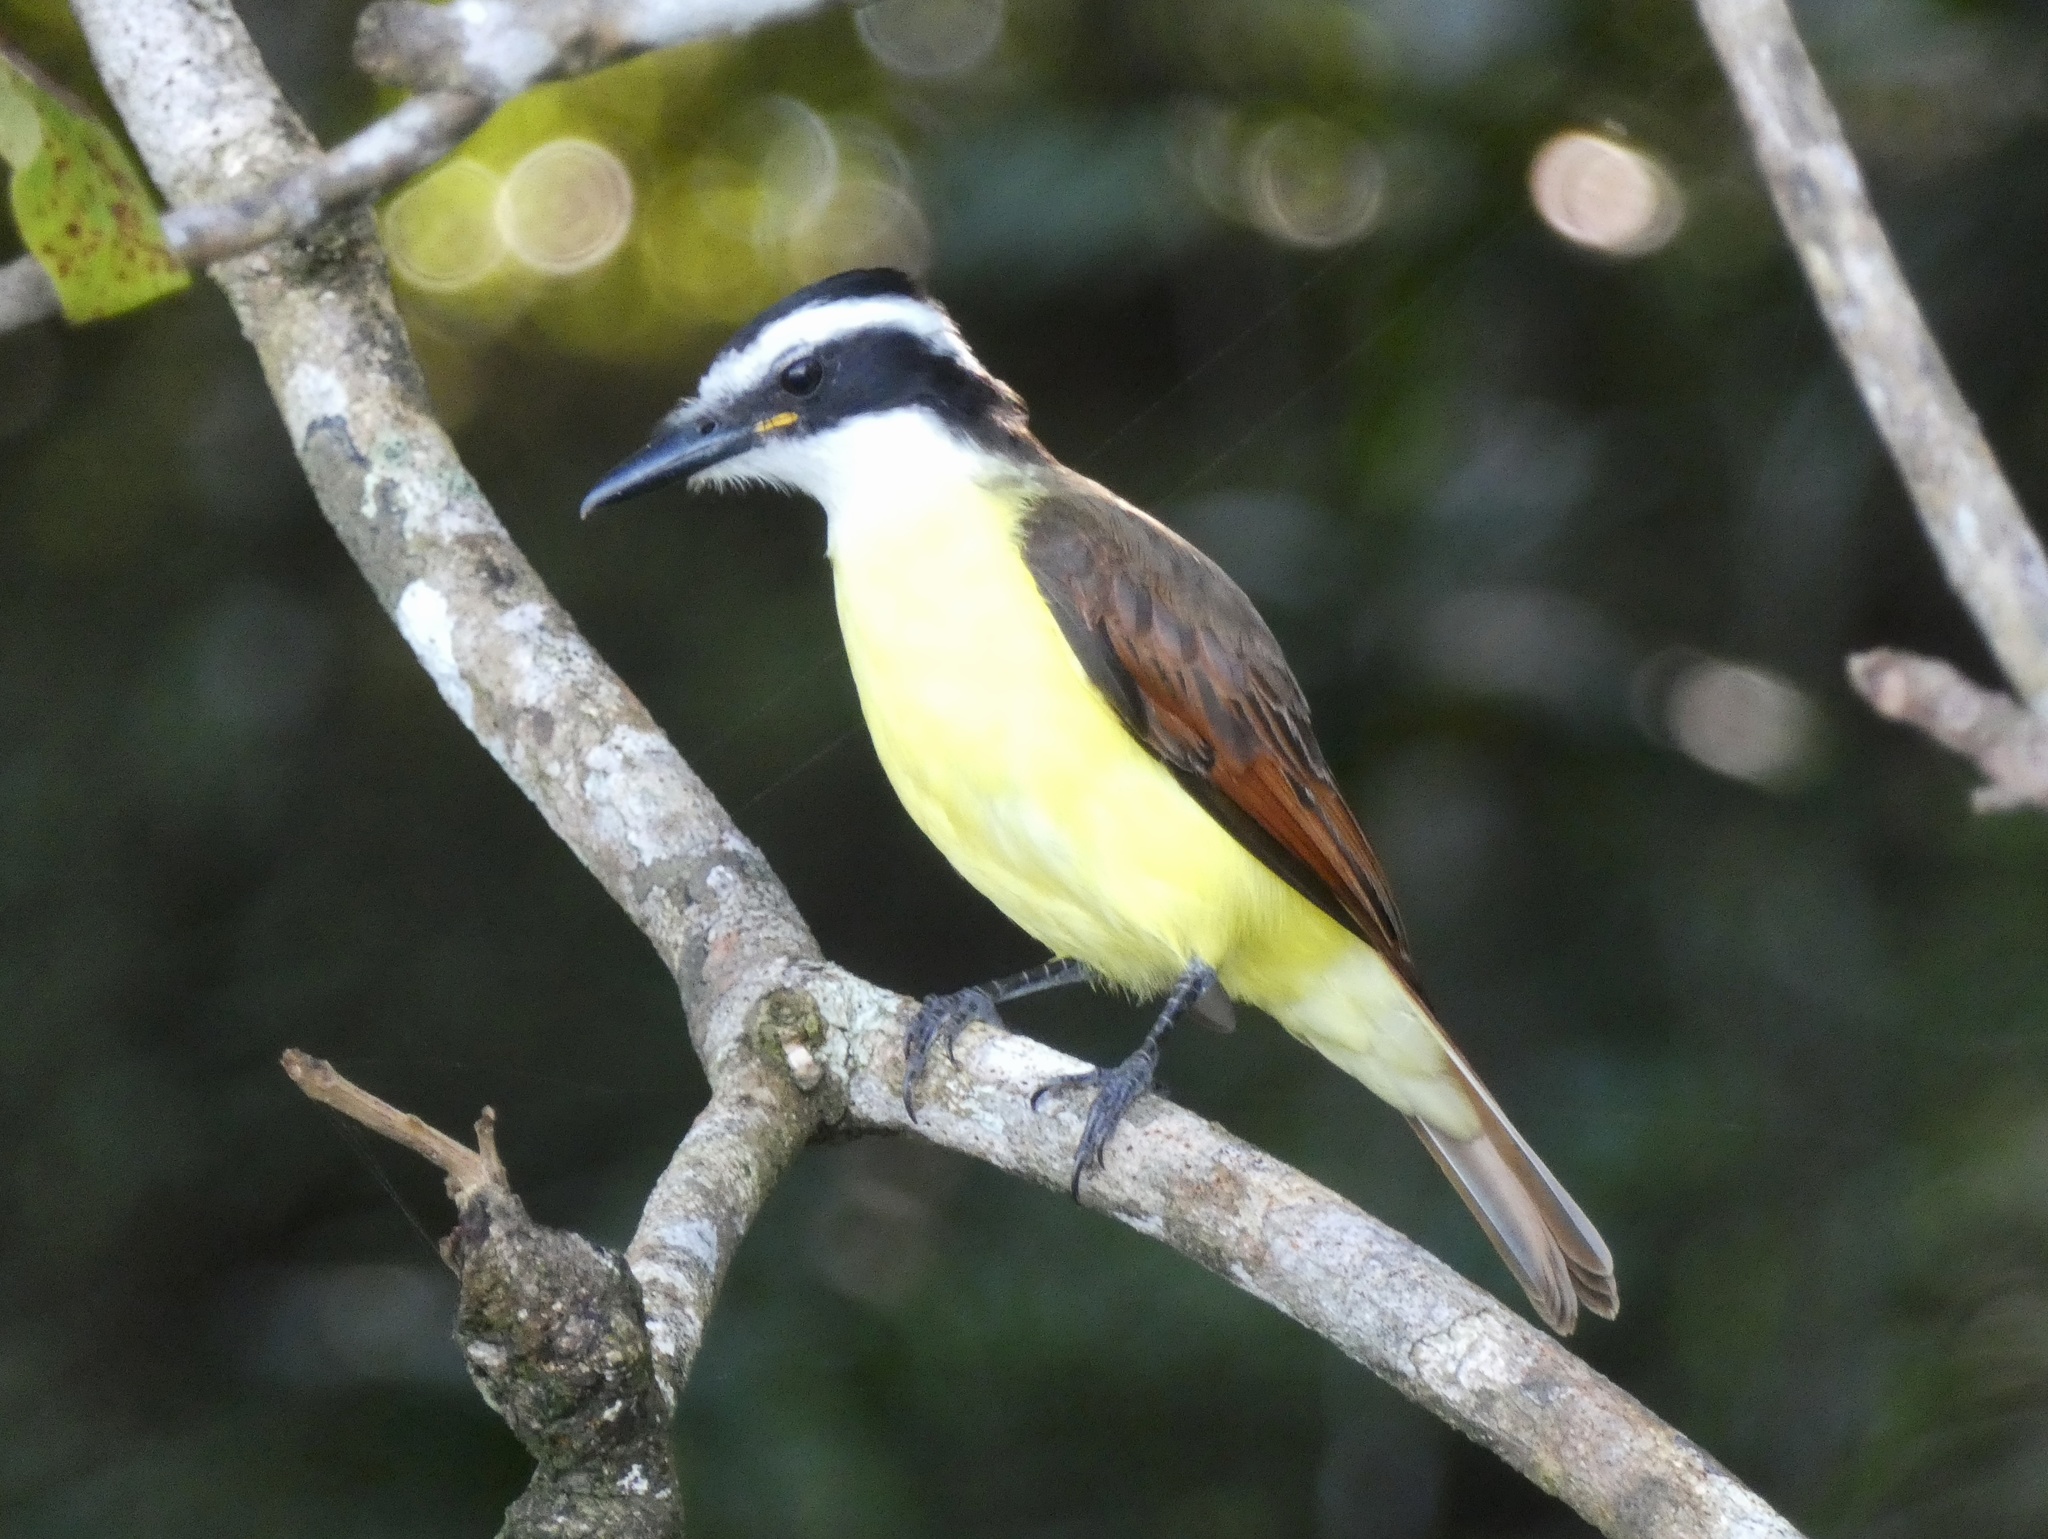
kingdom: Animalia
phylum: Chordata
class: Aves
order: Passeriformes
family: Tyrannidae
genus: Pitangus
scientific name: Pitangus sulphuratus
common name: Great kiskadee
